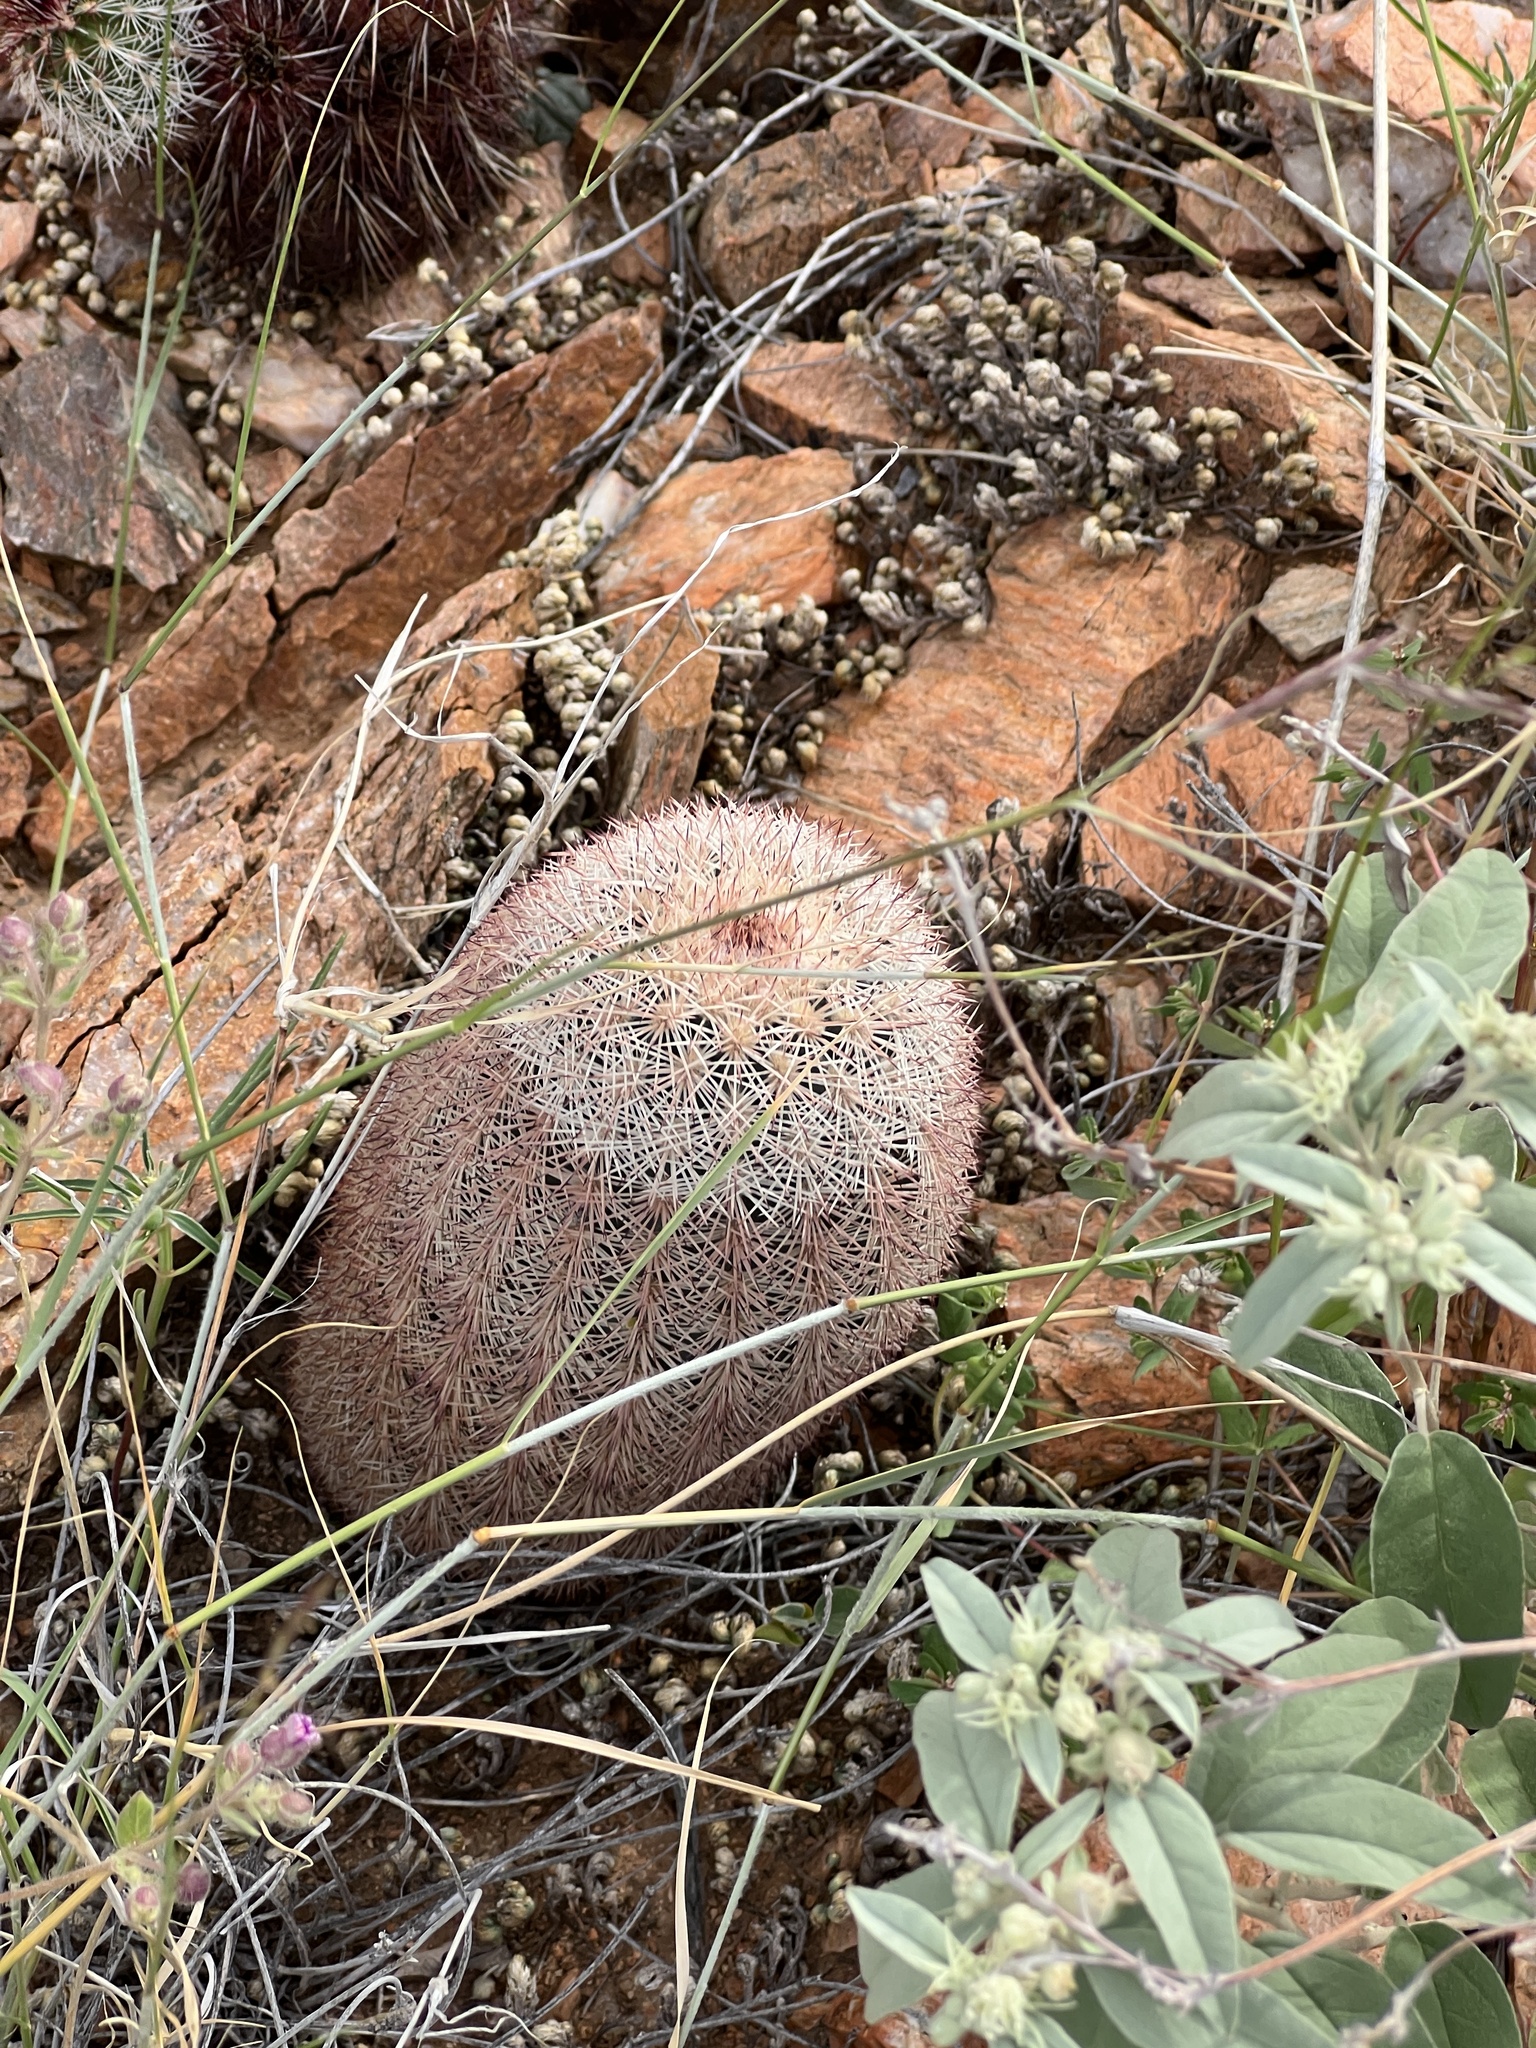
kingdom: Plantae
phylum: Tracheophyta
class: Magnoliopsida
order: Caryophyllales
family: Cactaceae
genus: Echinocereus
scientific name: Echinocereus dasyacanthus
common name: Spiny hedgehog cactus
